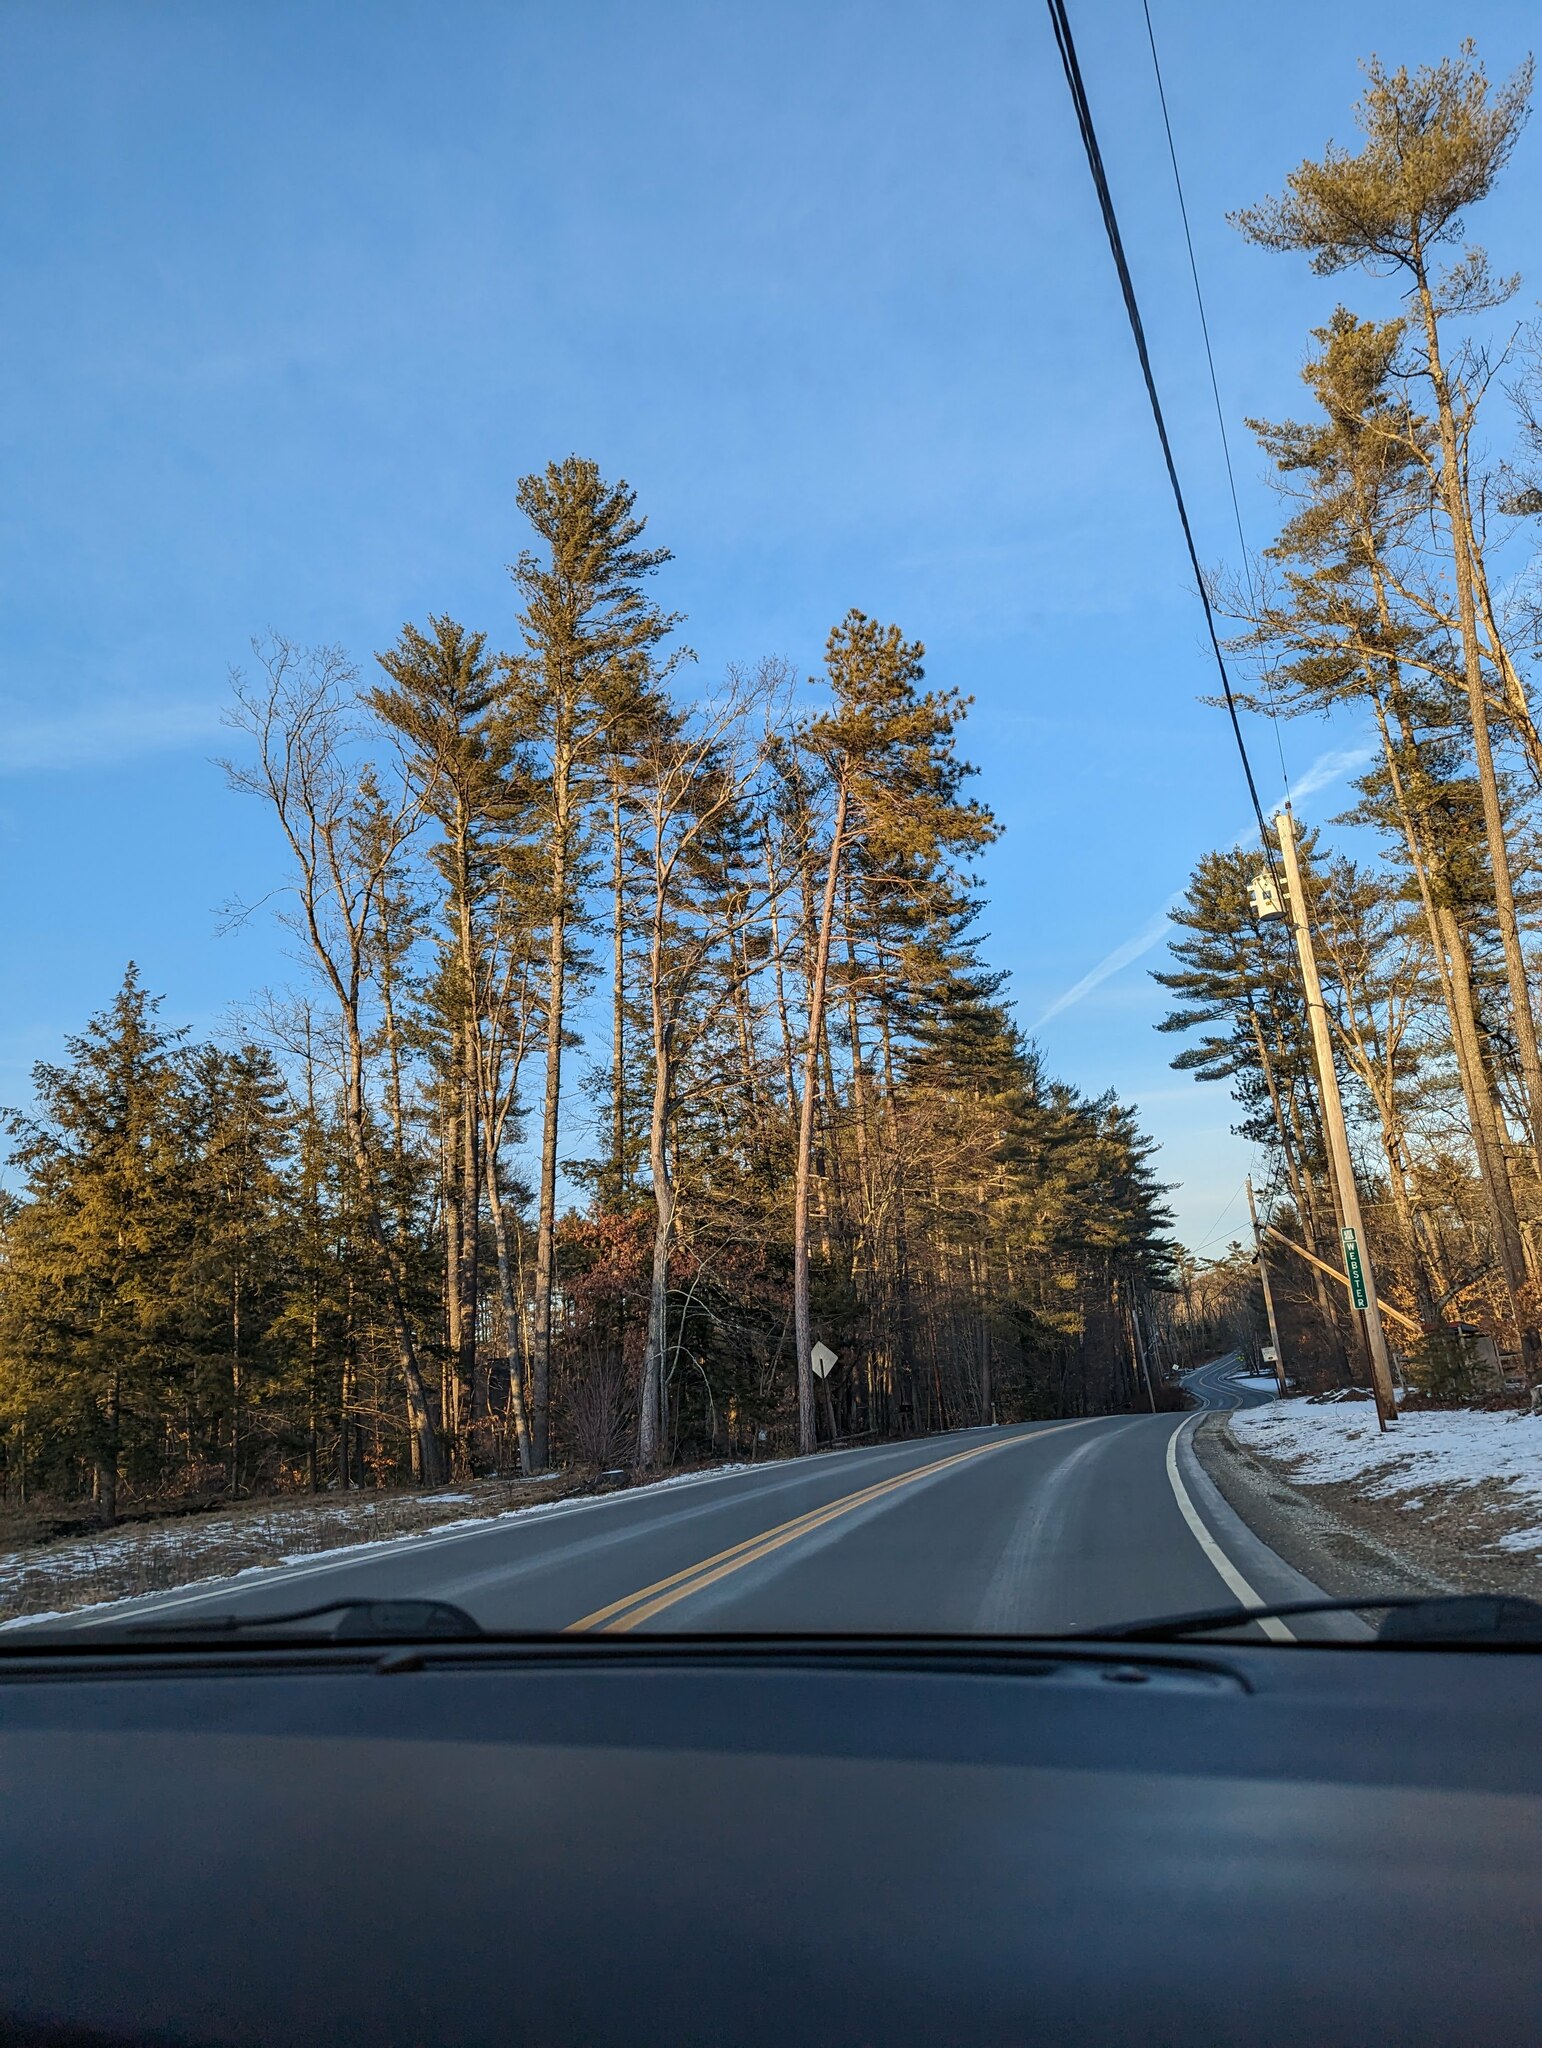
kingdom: Plantae
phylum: Tracheophyta
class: Pinopsida
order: Pinales
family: Pinaceae
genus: Pinus
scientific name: Pinus strobus
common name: Weymouth pine
